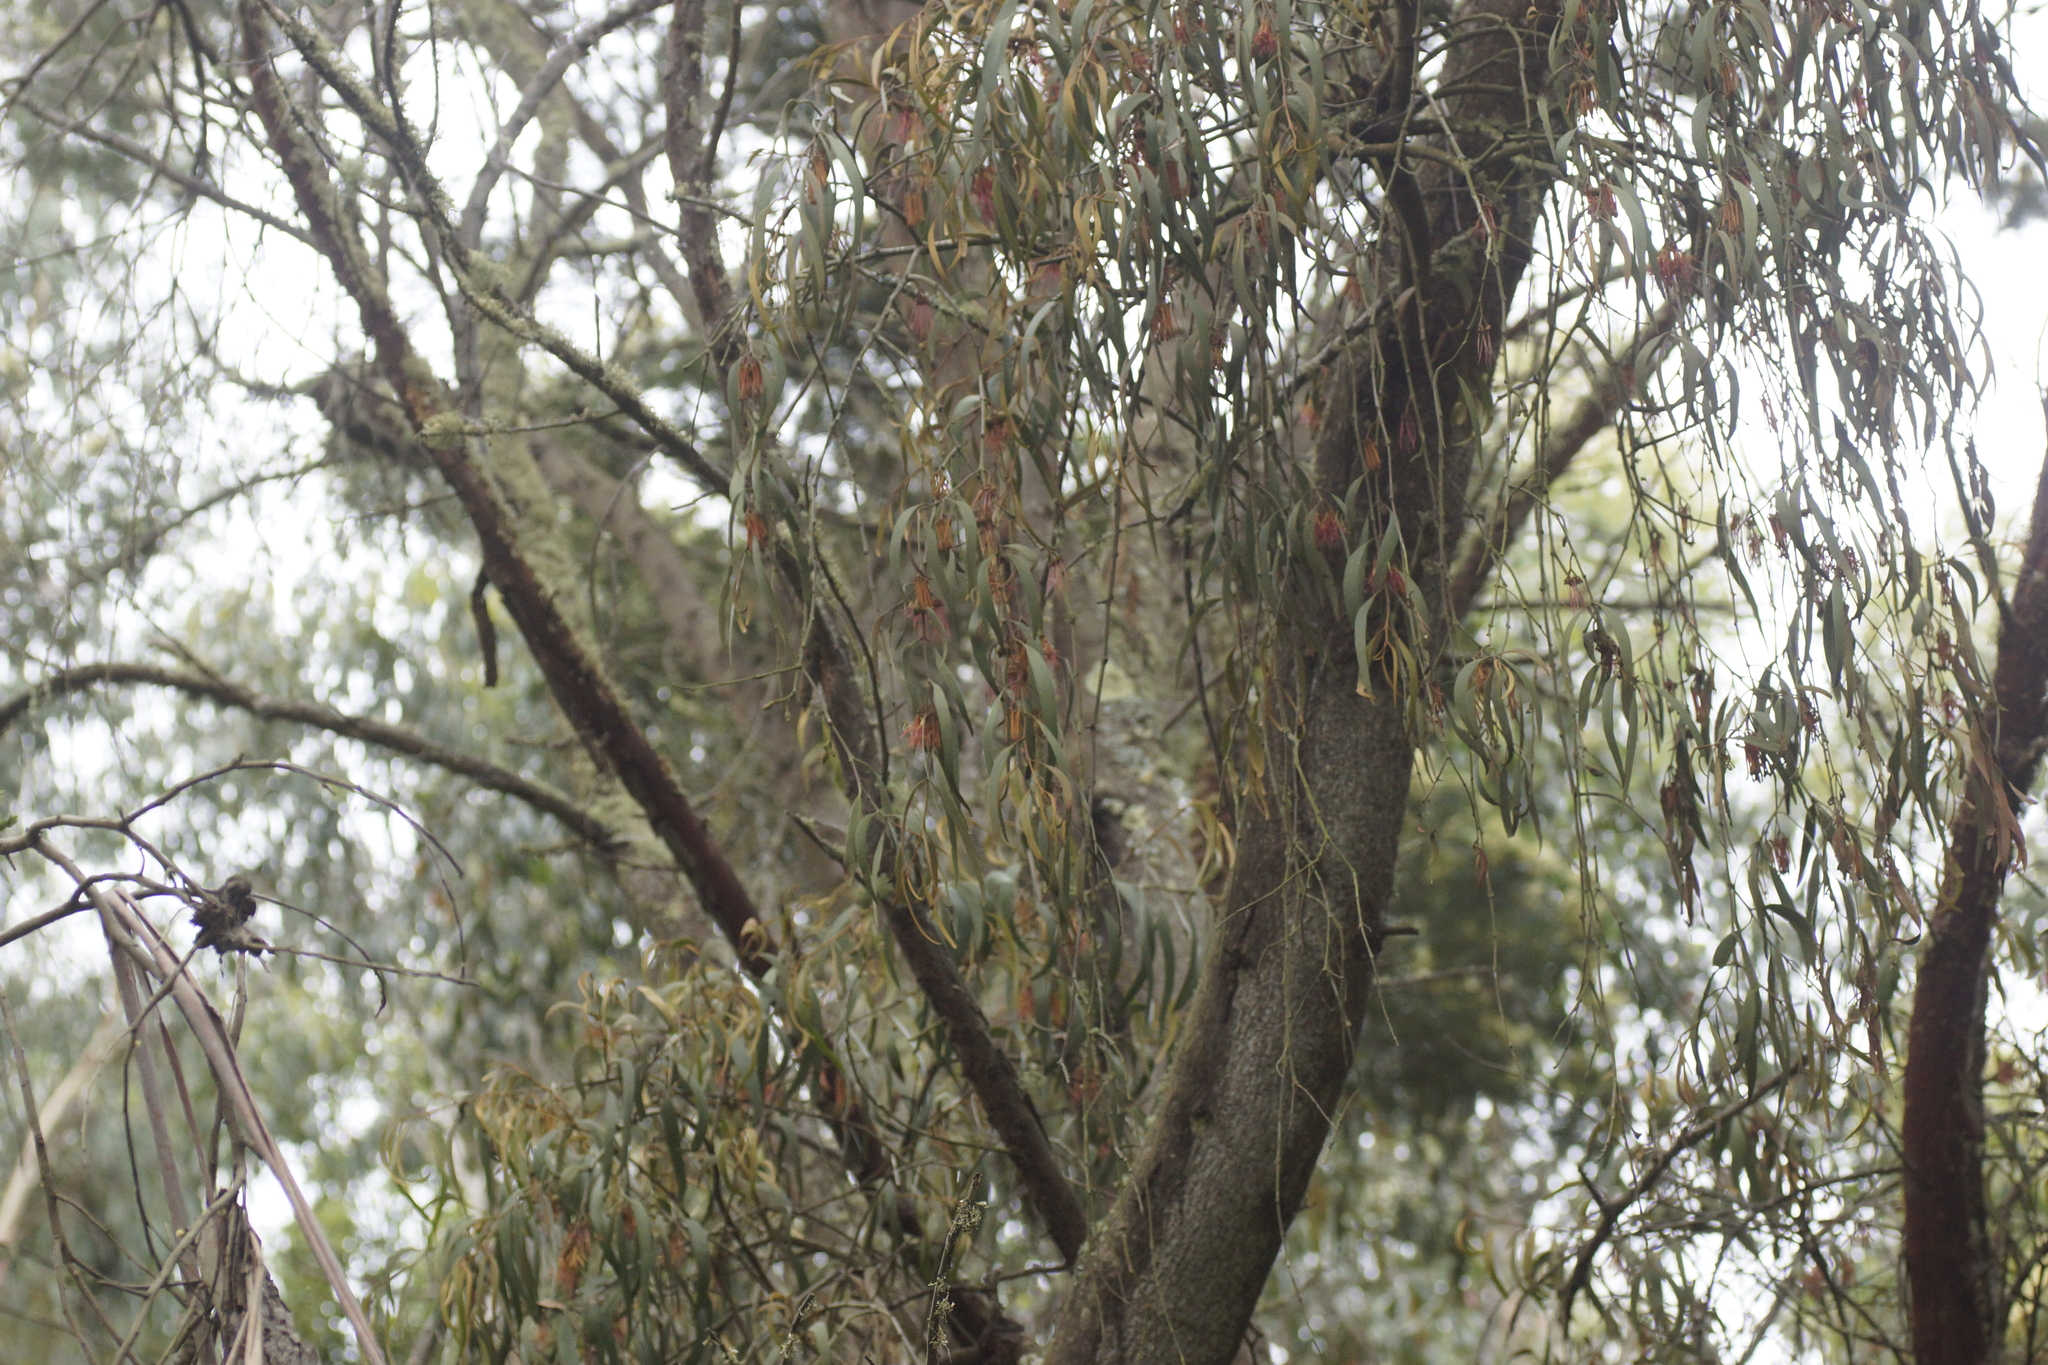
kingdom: Plantae
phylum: Tracheophyta
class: Magnoliopsida
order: Santalales
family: Loranthaceae
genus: Amyema
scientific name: Amyema pendula
